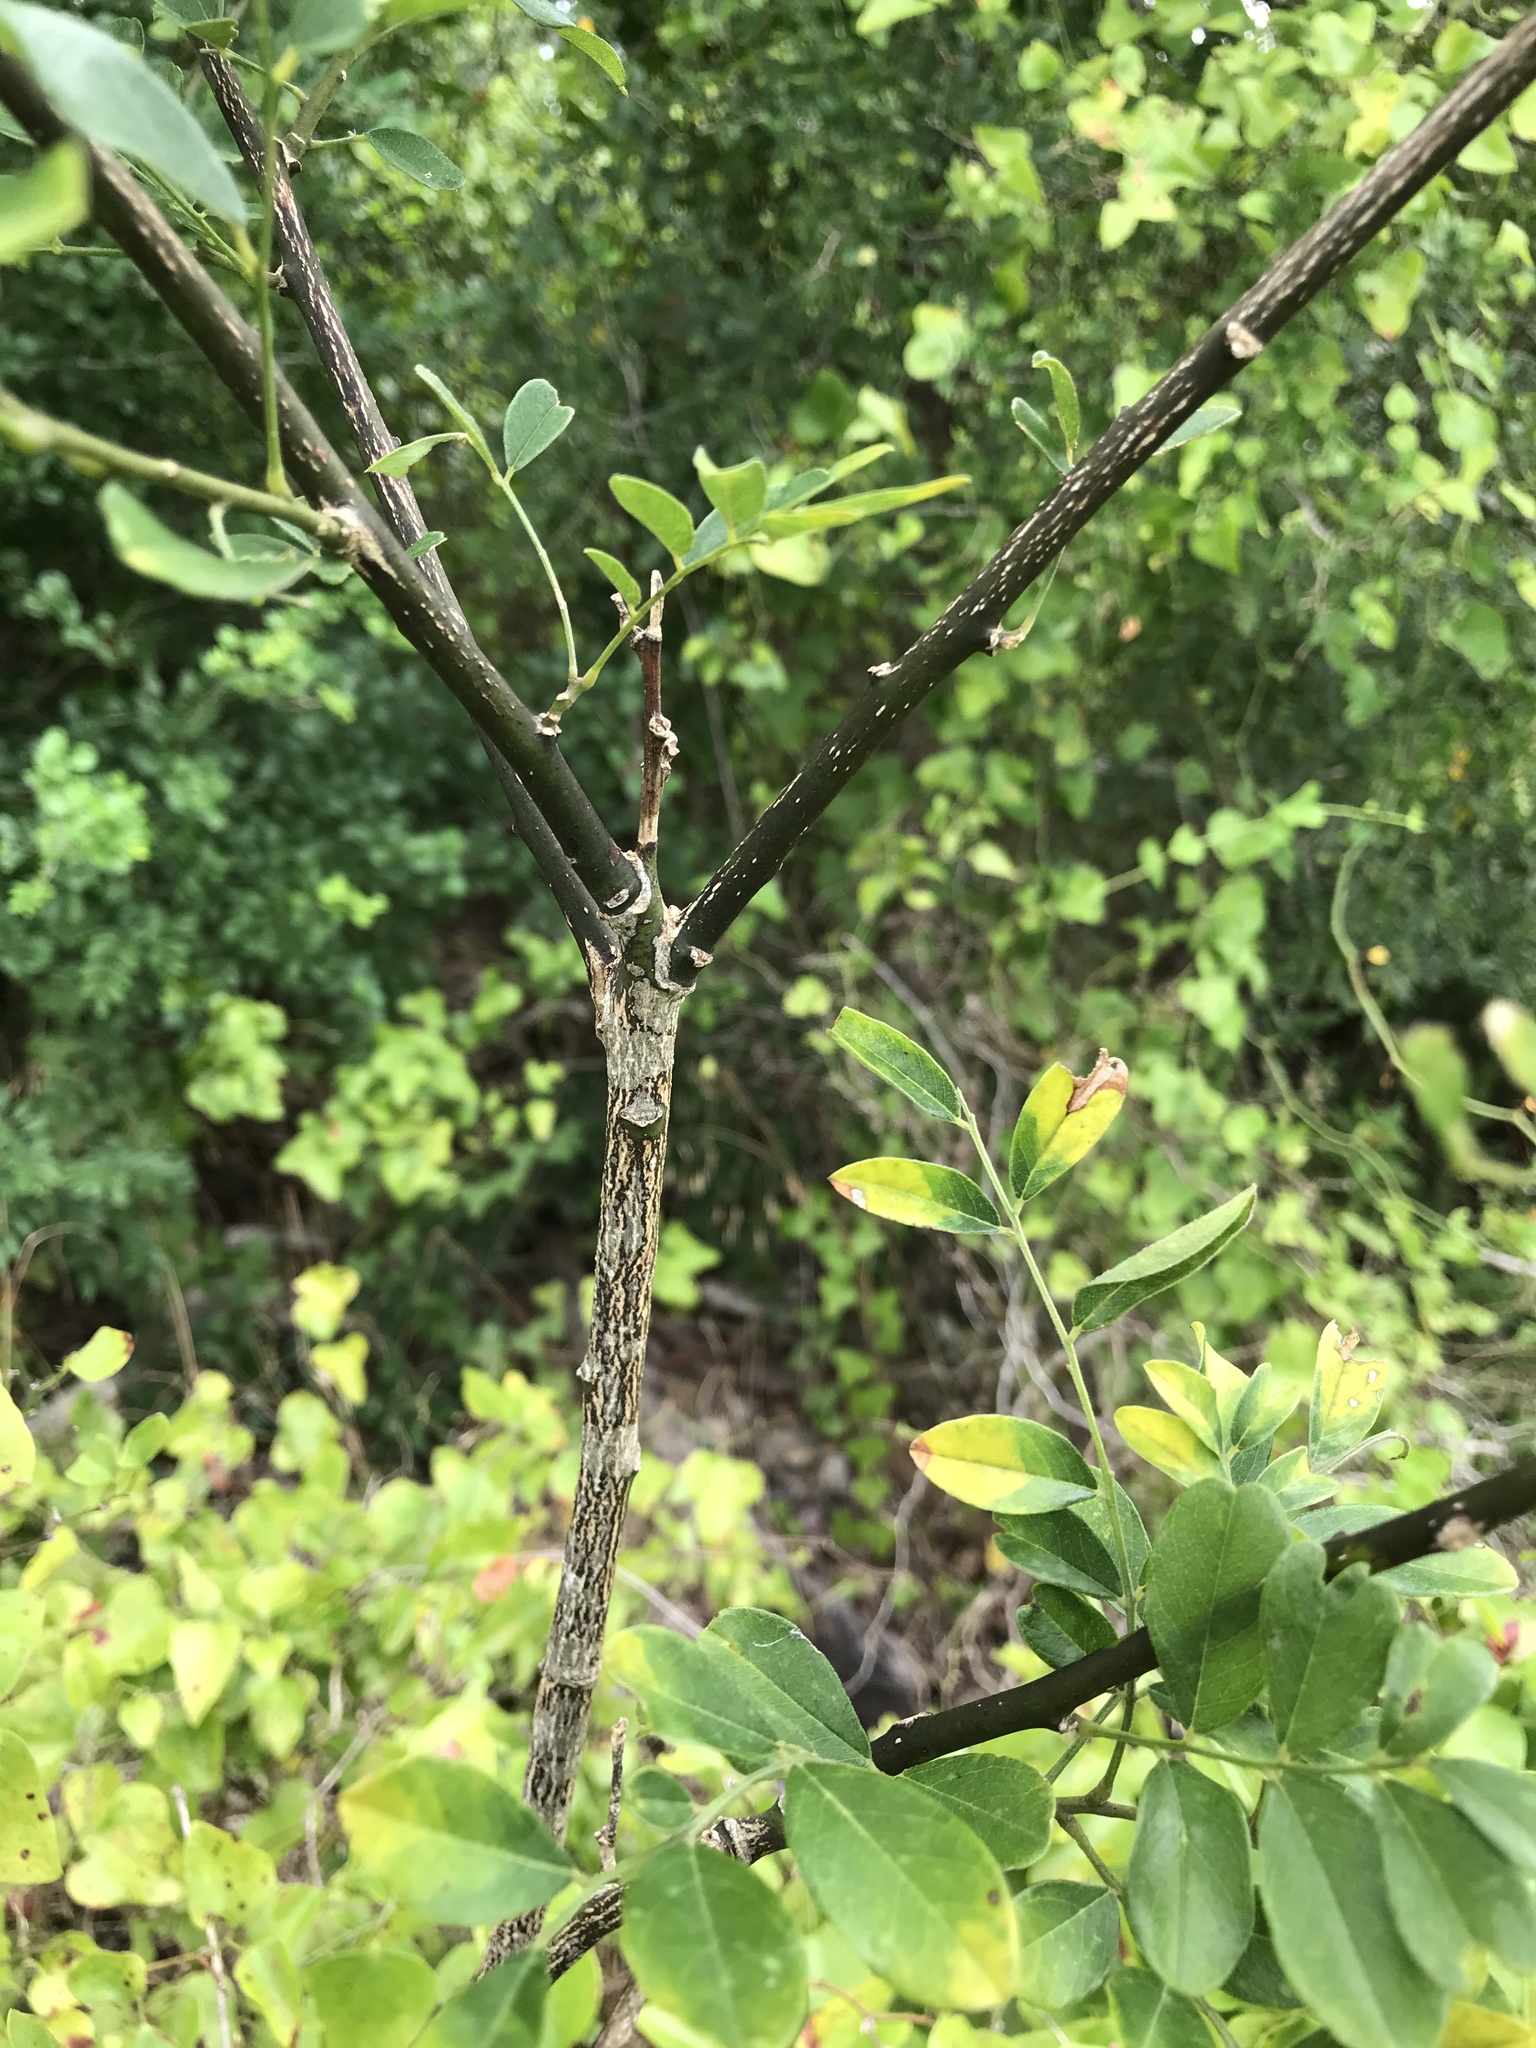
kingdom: Plantae
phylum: Tracheophyta
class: Magnoliopsida
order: Fabales
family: Fabaceae
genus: Styphnolobium
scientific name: Styphnolobium affine
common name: Texas sophora
